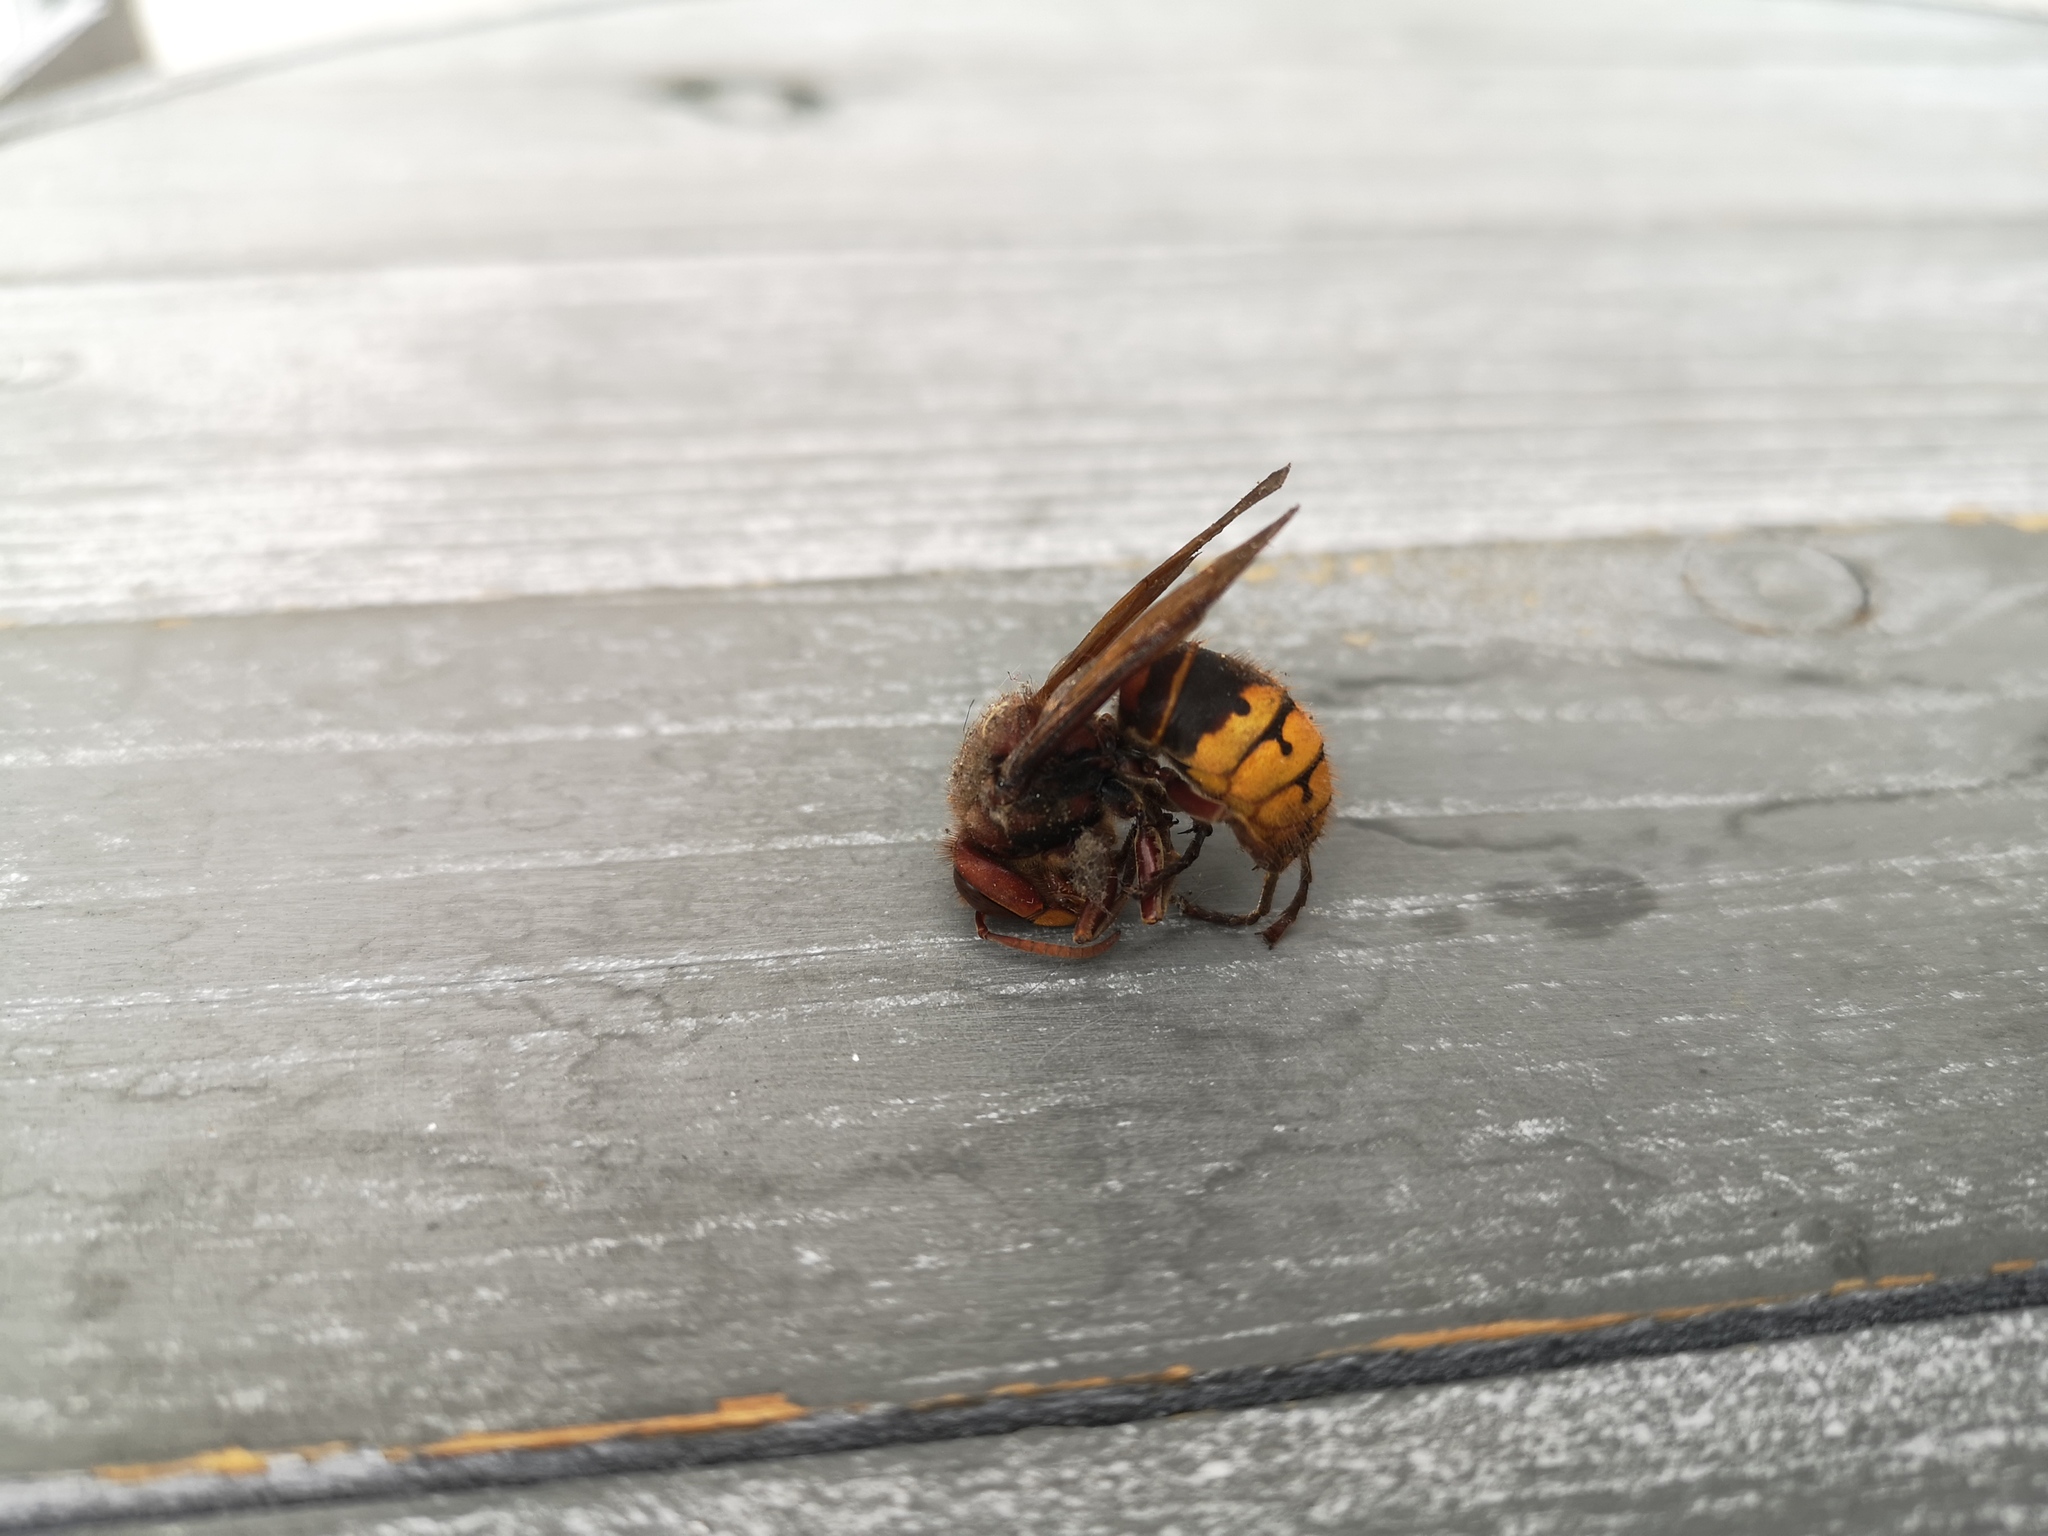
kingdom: Animalia
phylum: Arthropoda
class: Insecta
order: Hymenoptera
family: Vespidae
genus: Vespa
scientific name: Vespa crabro
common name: Hornet
